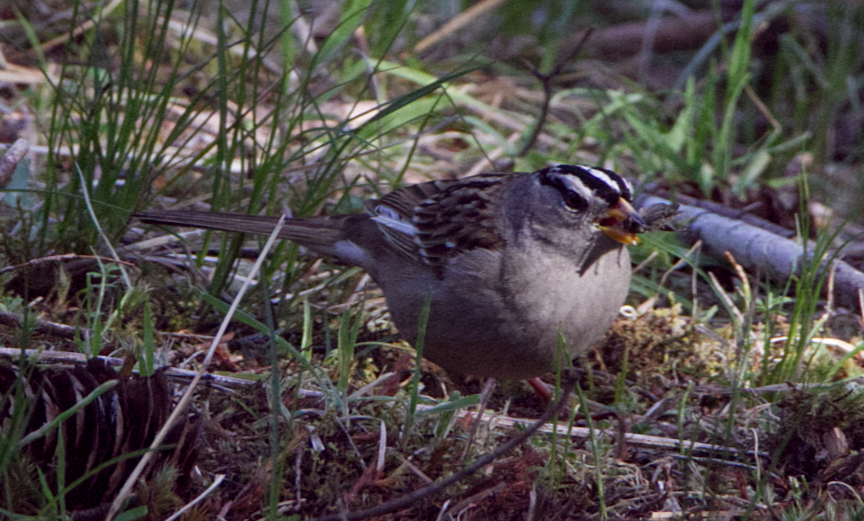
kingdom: Animalia
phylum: Chordata
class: Aves
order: Passeriformes
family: Passerellidae
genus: Zonotrichia
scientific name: Zonotrichia leucophrys
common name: White-crowned sparrow
